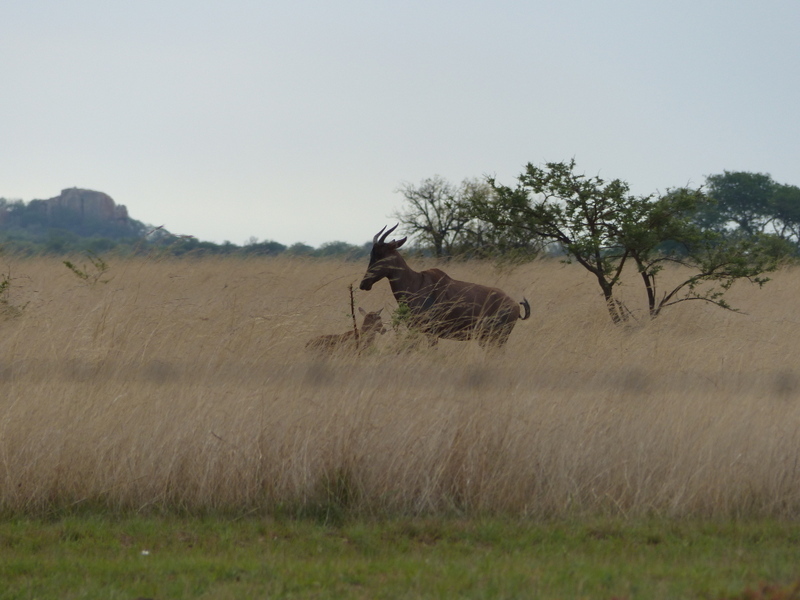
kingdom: Animalia
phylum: Chordata
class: Mammalia
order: Artiodactyla
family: Bovidae
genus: Damaliscus
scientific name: Damaliscus lunatus
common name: Common tsessebe
